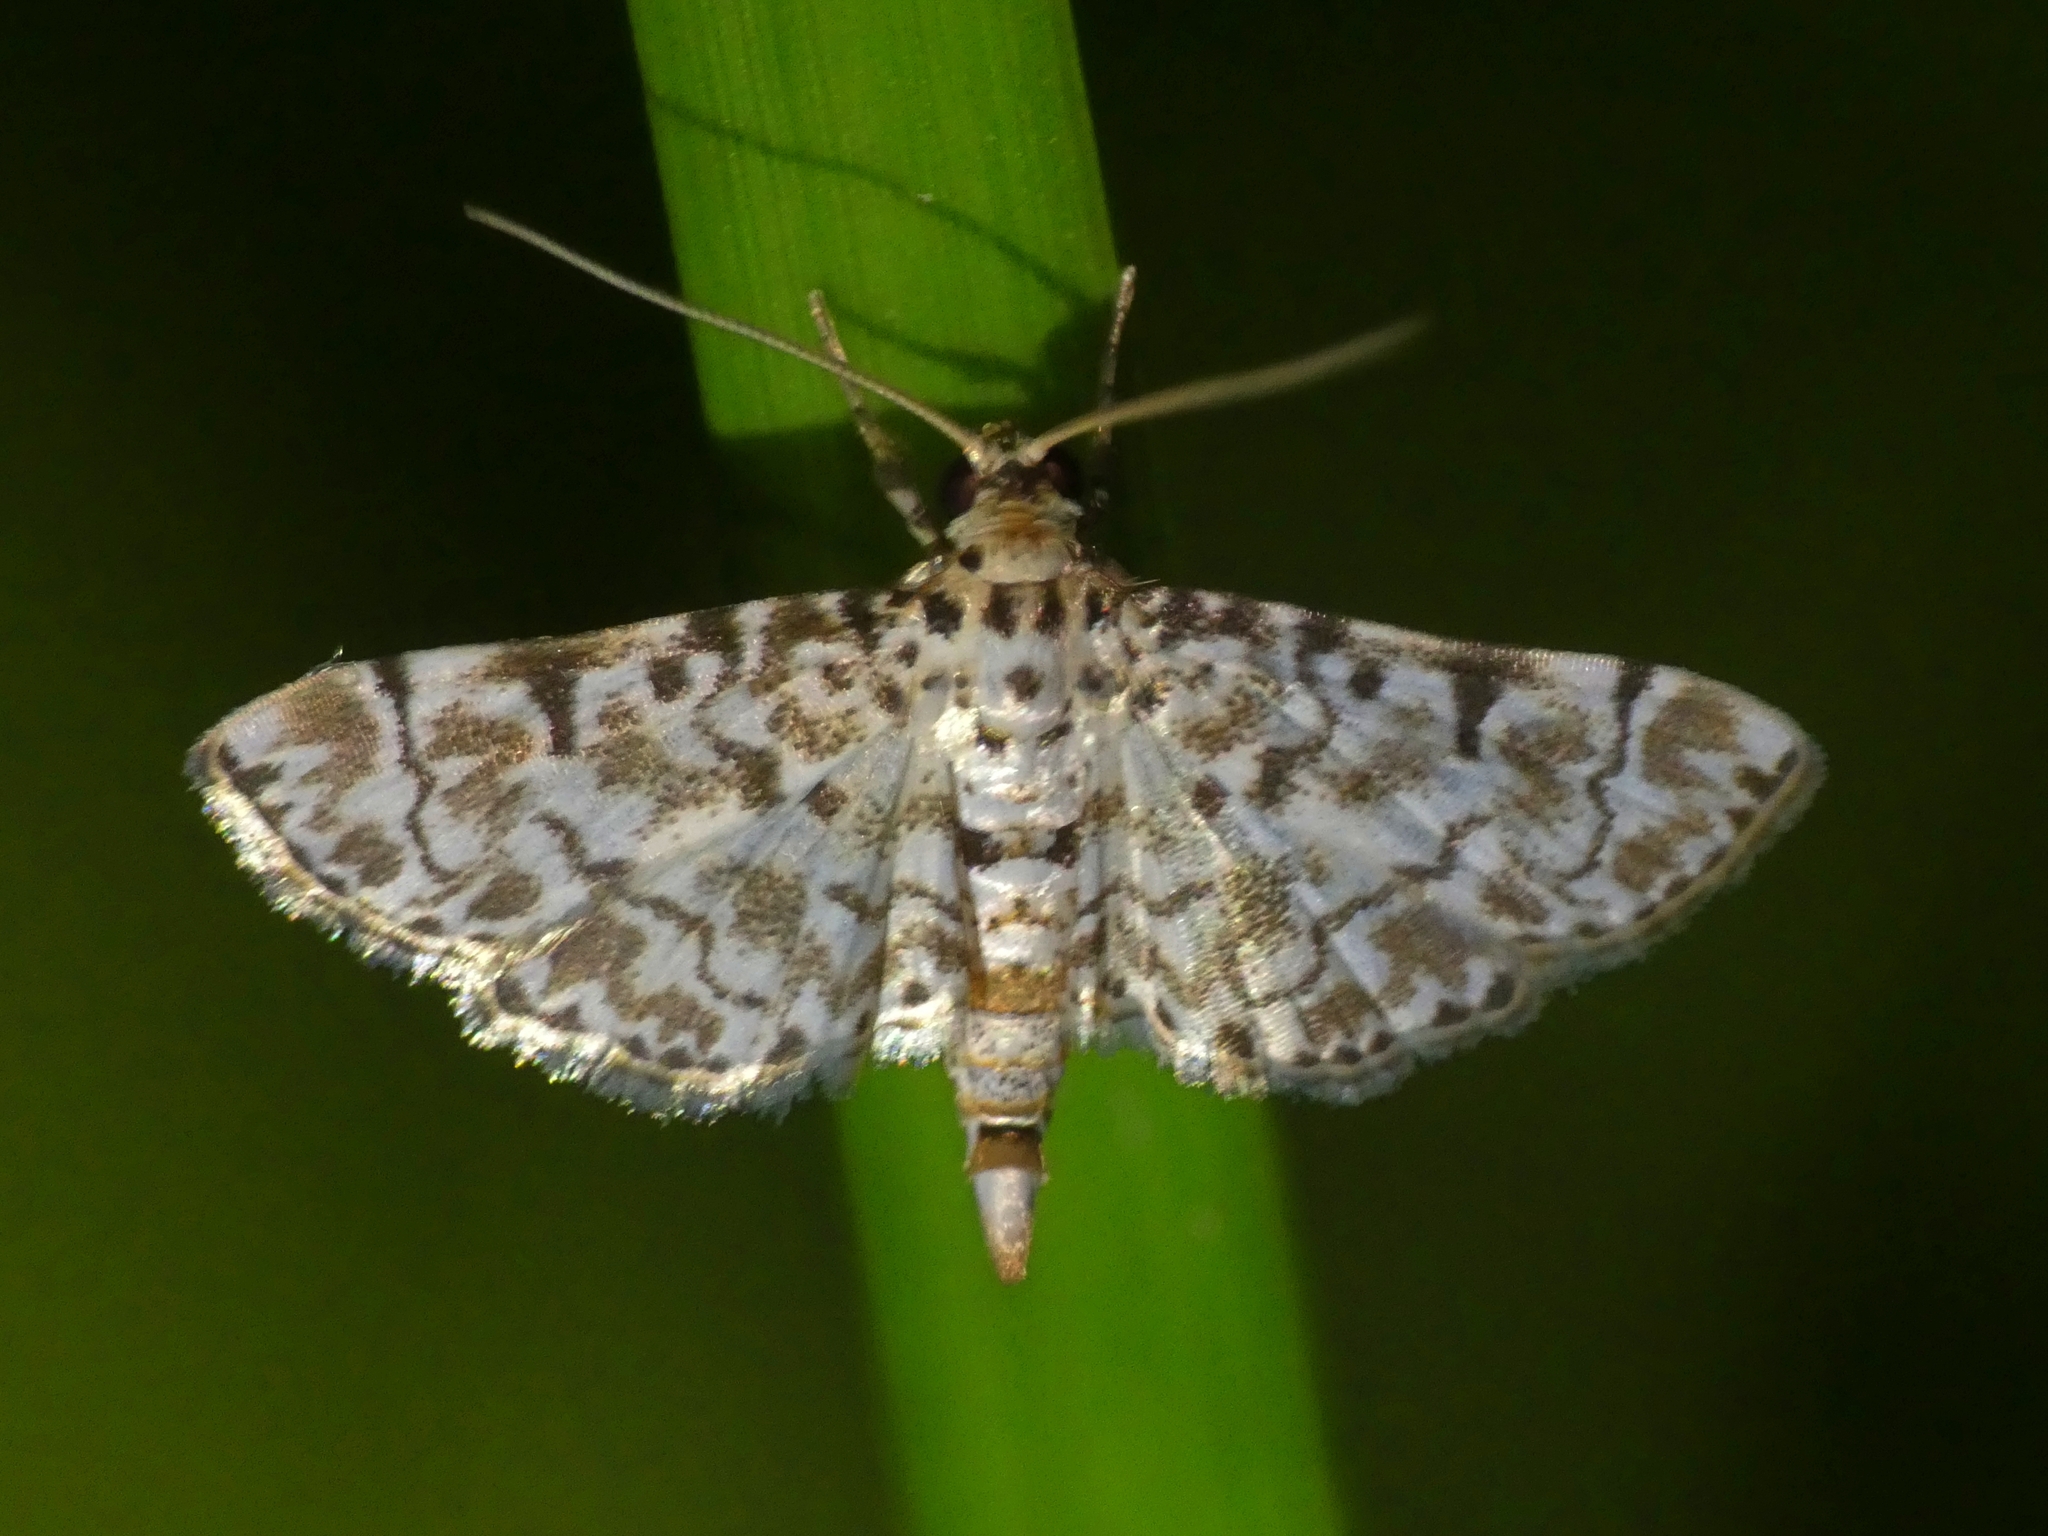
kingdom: Animalia
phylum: Arthropoda
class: Insecta
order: Lepidoptera
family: Crambidae
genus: Metoeca
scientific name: Metoeca foedalis
